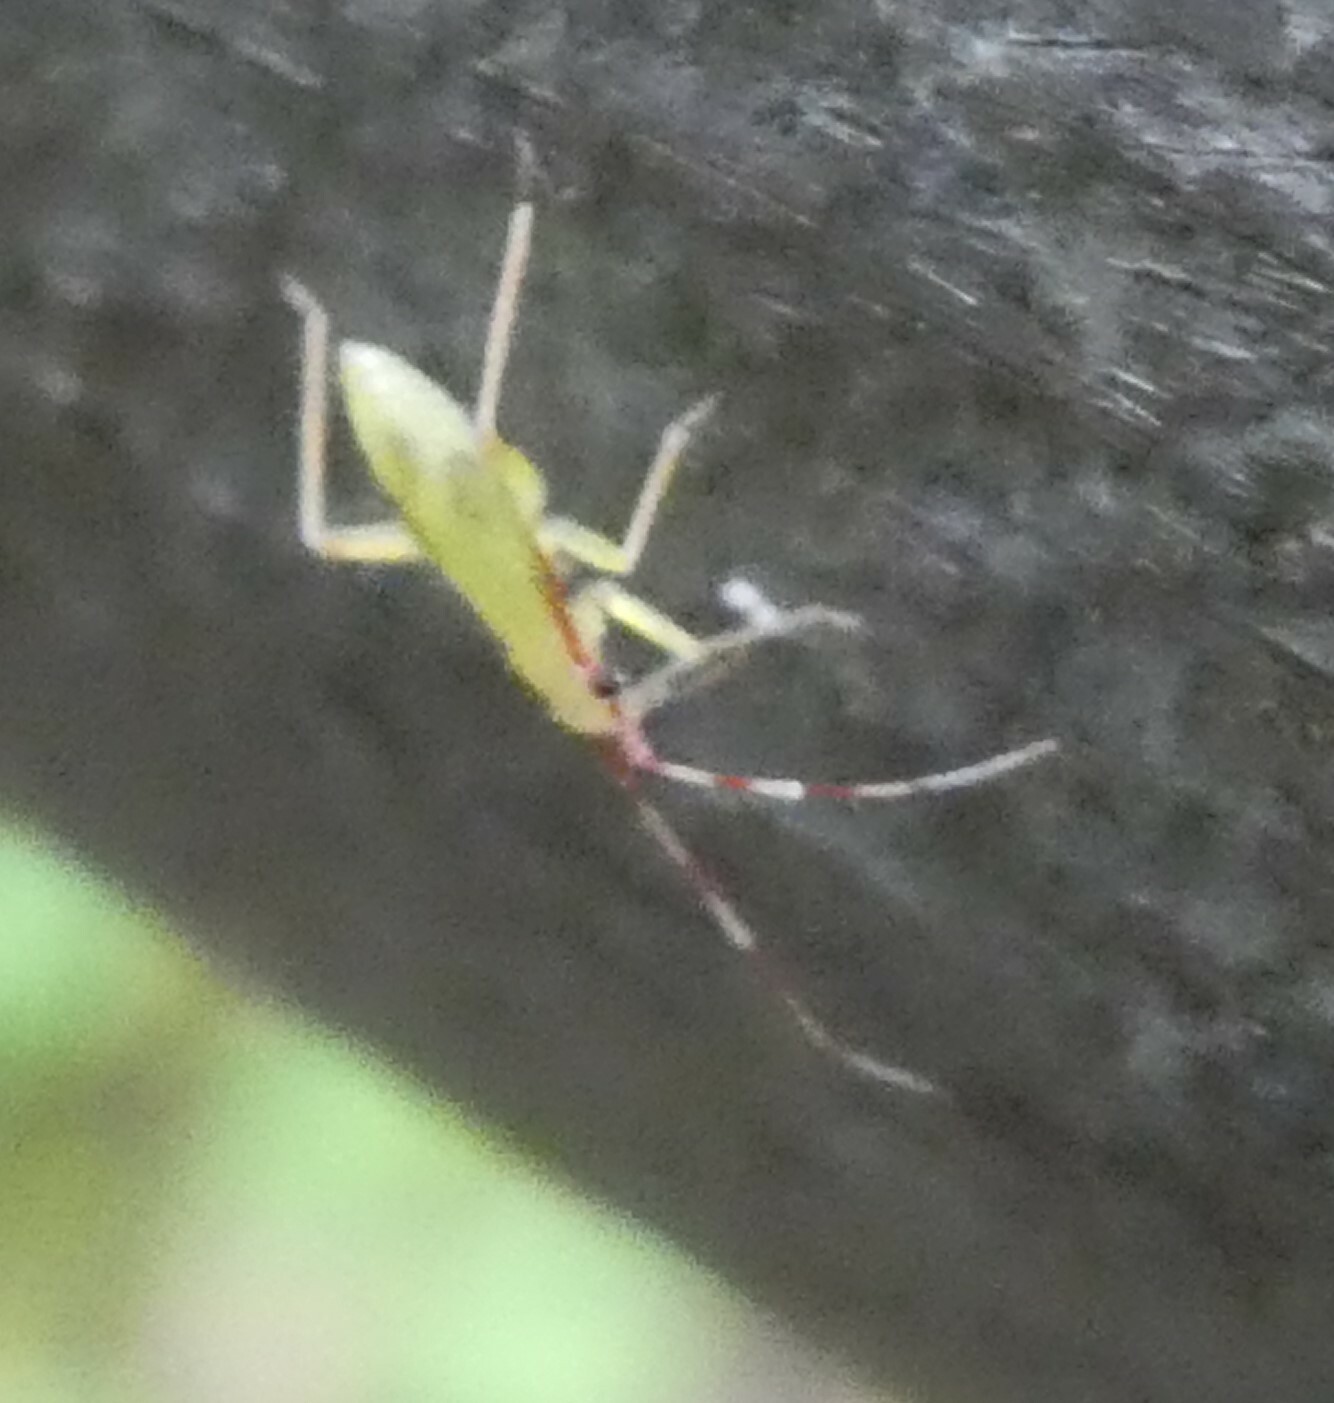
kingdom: Animalia
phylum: Arthropoda
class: Insecta
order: Hemiptera
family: Miridae
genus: Campyloneura
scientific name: Campyloneura virgula
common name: Predatory bug
